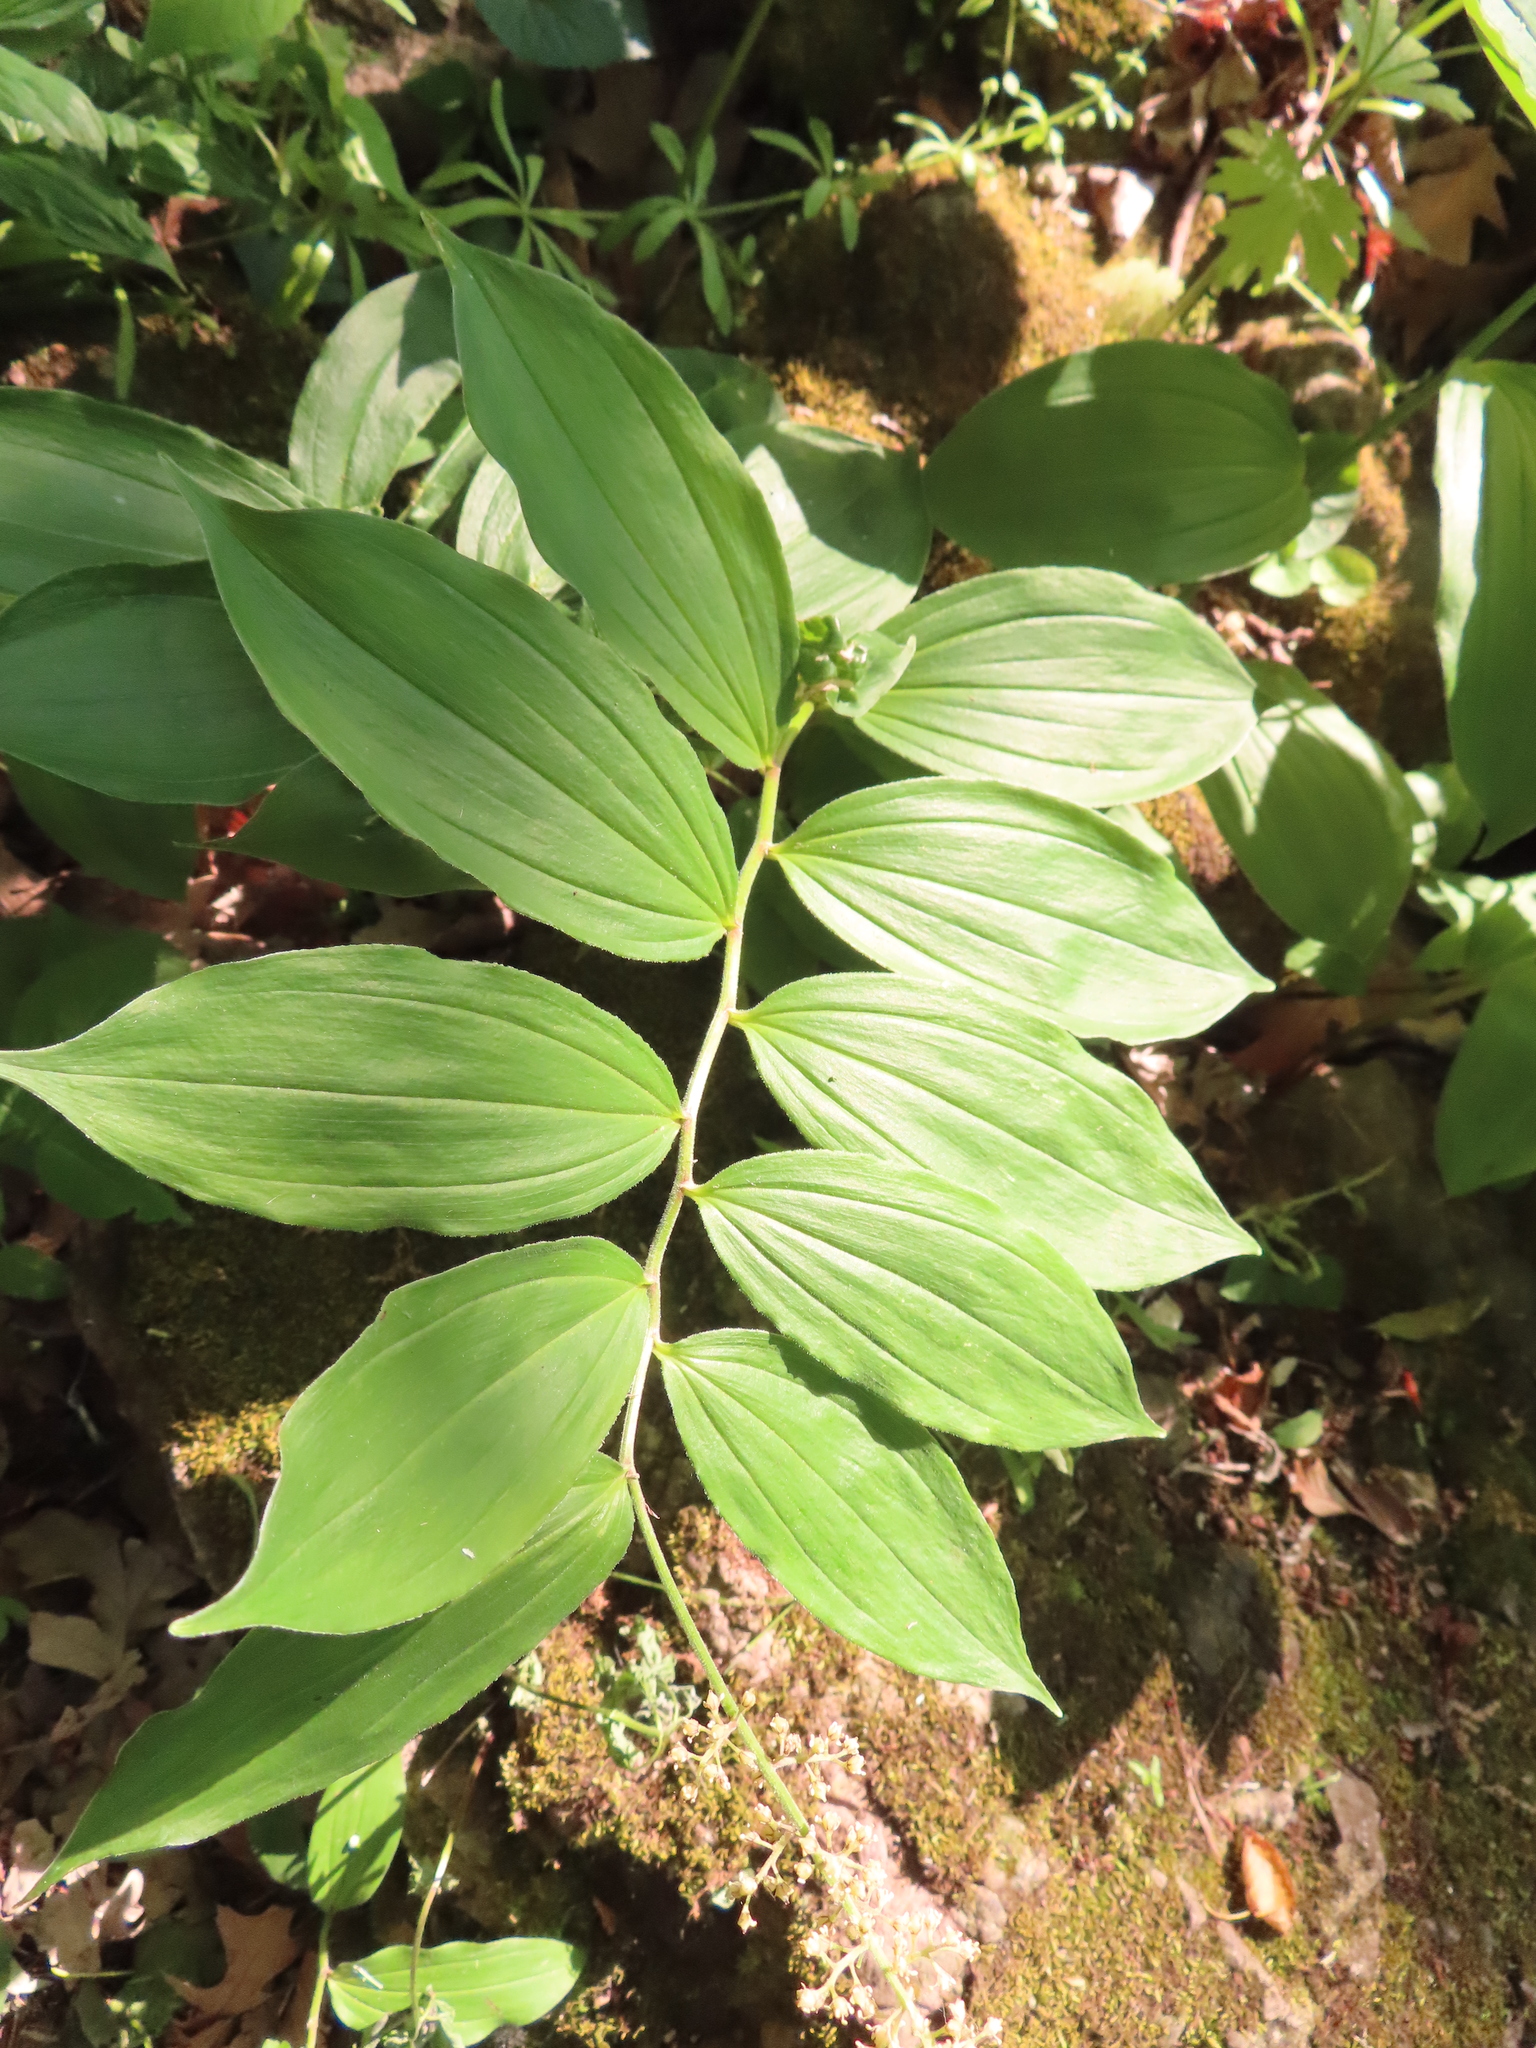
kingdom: Plantae
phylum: Tracheophyta
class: Liliopsida
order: Asparagales
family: Asparagaceae
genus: Maianthemum
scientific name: Maianthemum racemosum
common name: False spikenard
